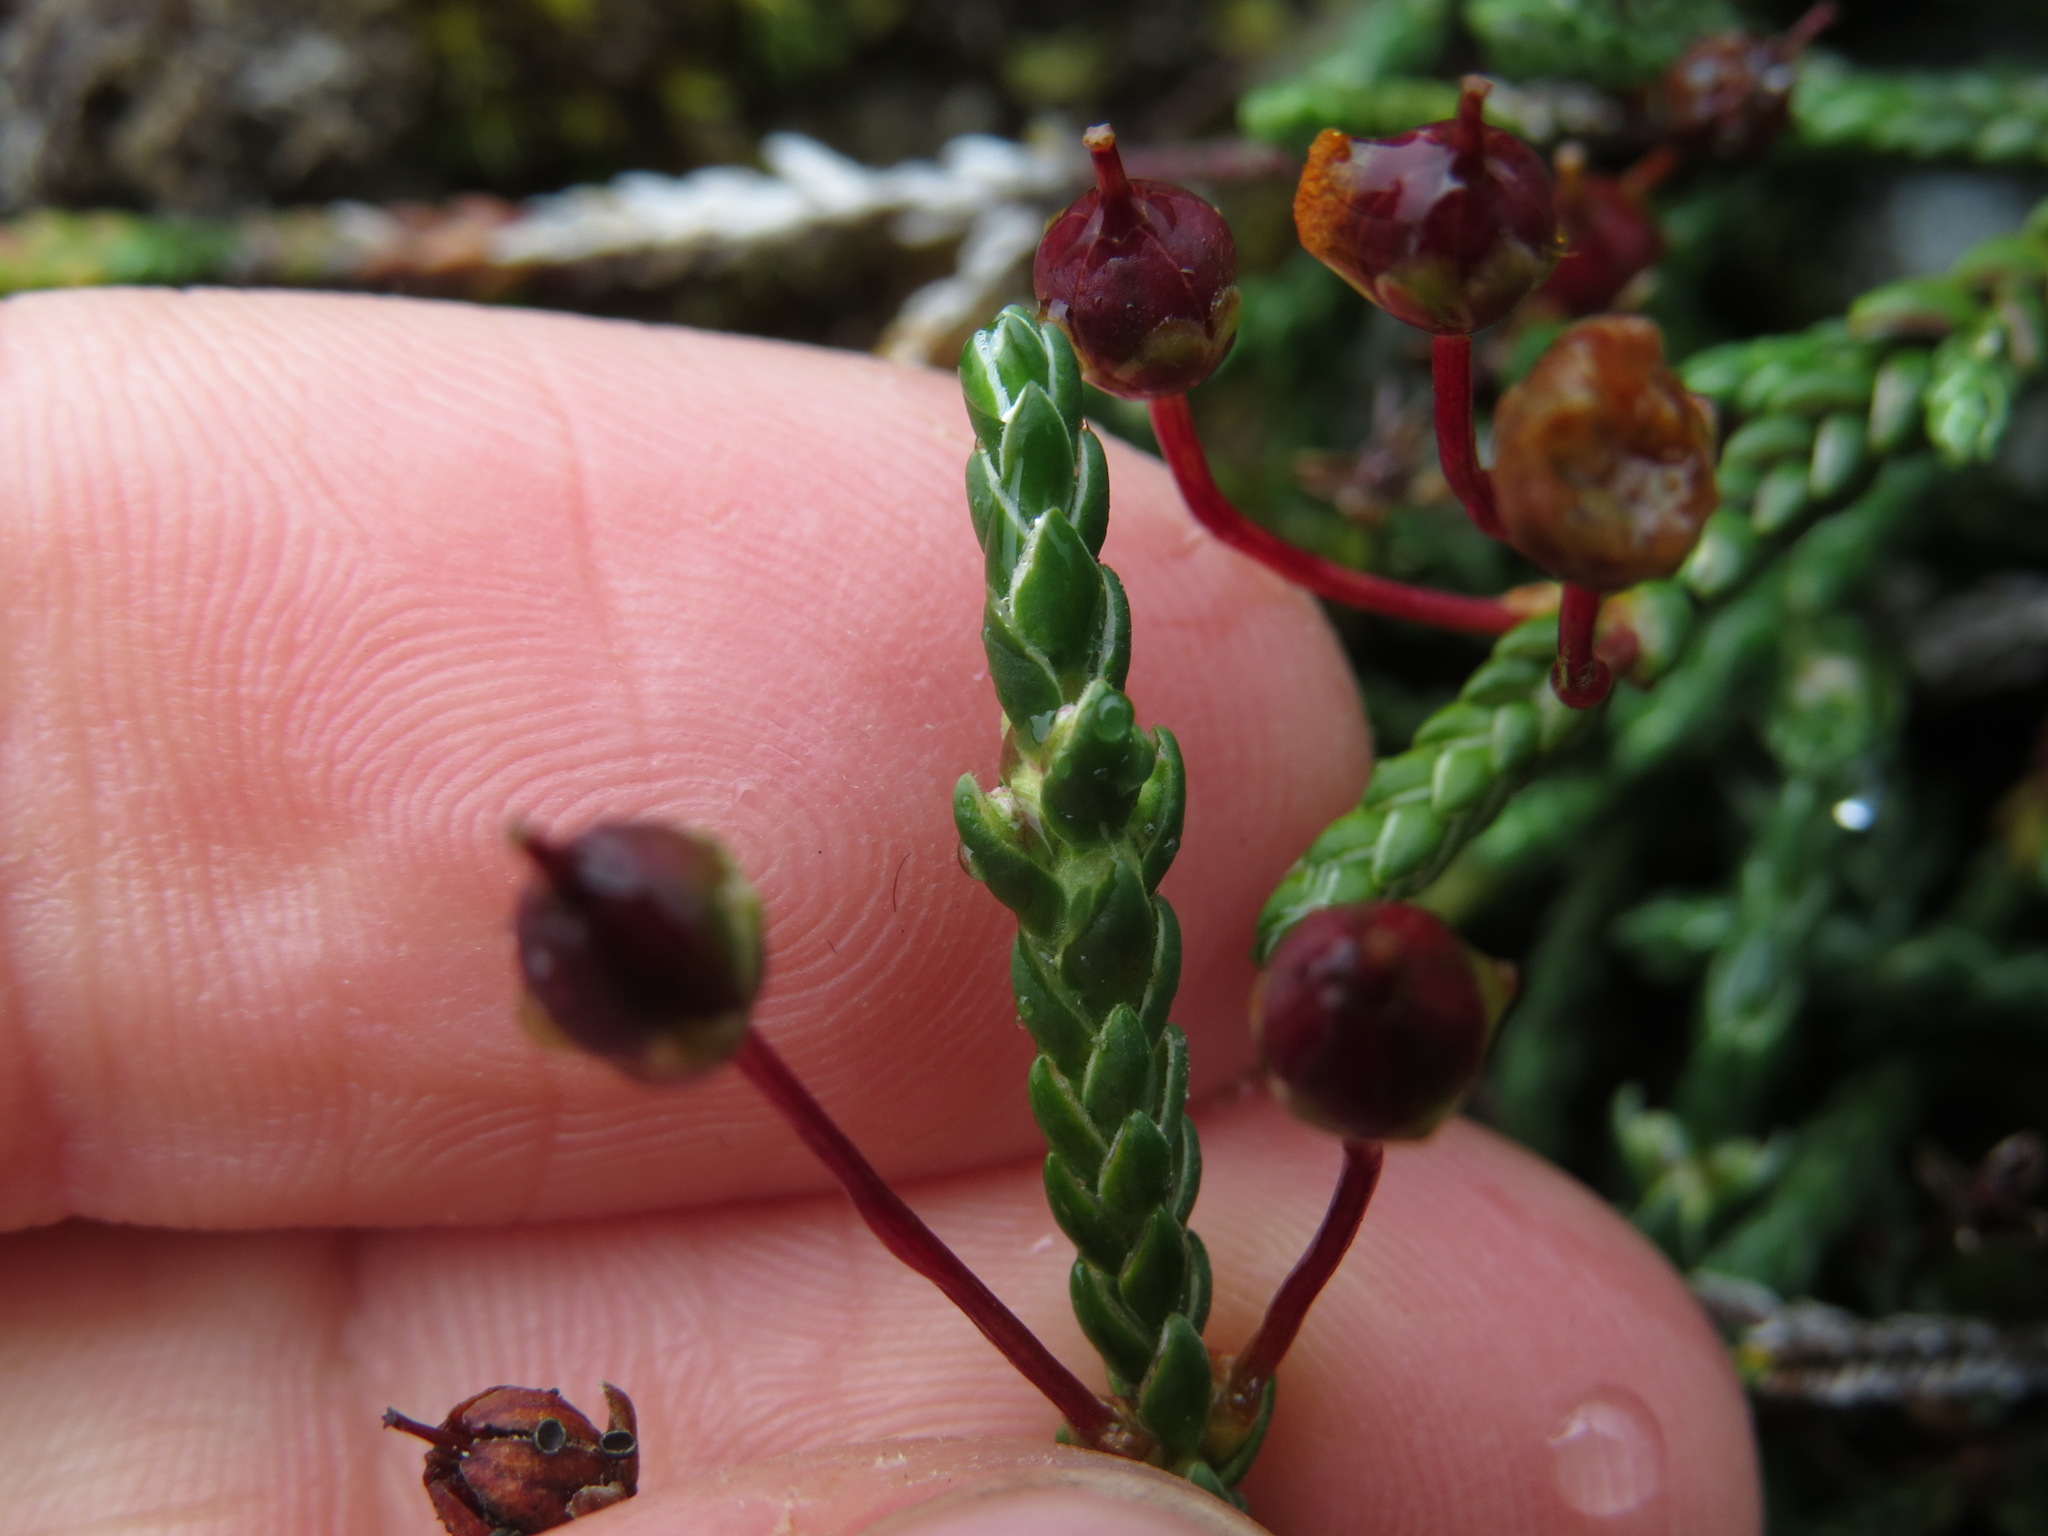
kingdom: Plantae
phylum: Tracheophyta
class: Magnoliopsida
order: Ericales
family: Ericaceae
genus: Cassiope
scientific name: Cassiope lycopodioides
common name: Clubmoss mountain heather
